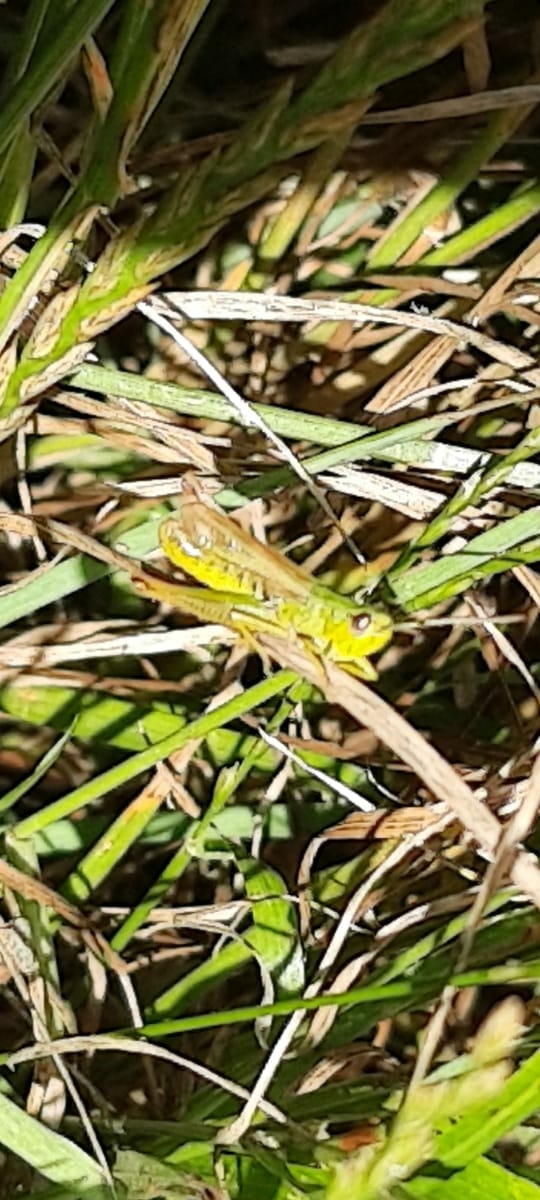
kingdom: Animalia
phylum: Arthropoda
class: Insecta
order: Orthoptera
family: Acrididae
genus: Pseudochorthippus
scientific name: Pseudochorthippus parallelus
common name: Meadow grasshopper
